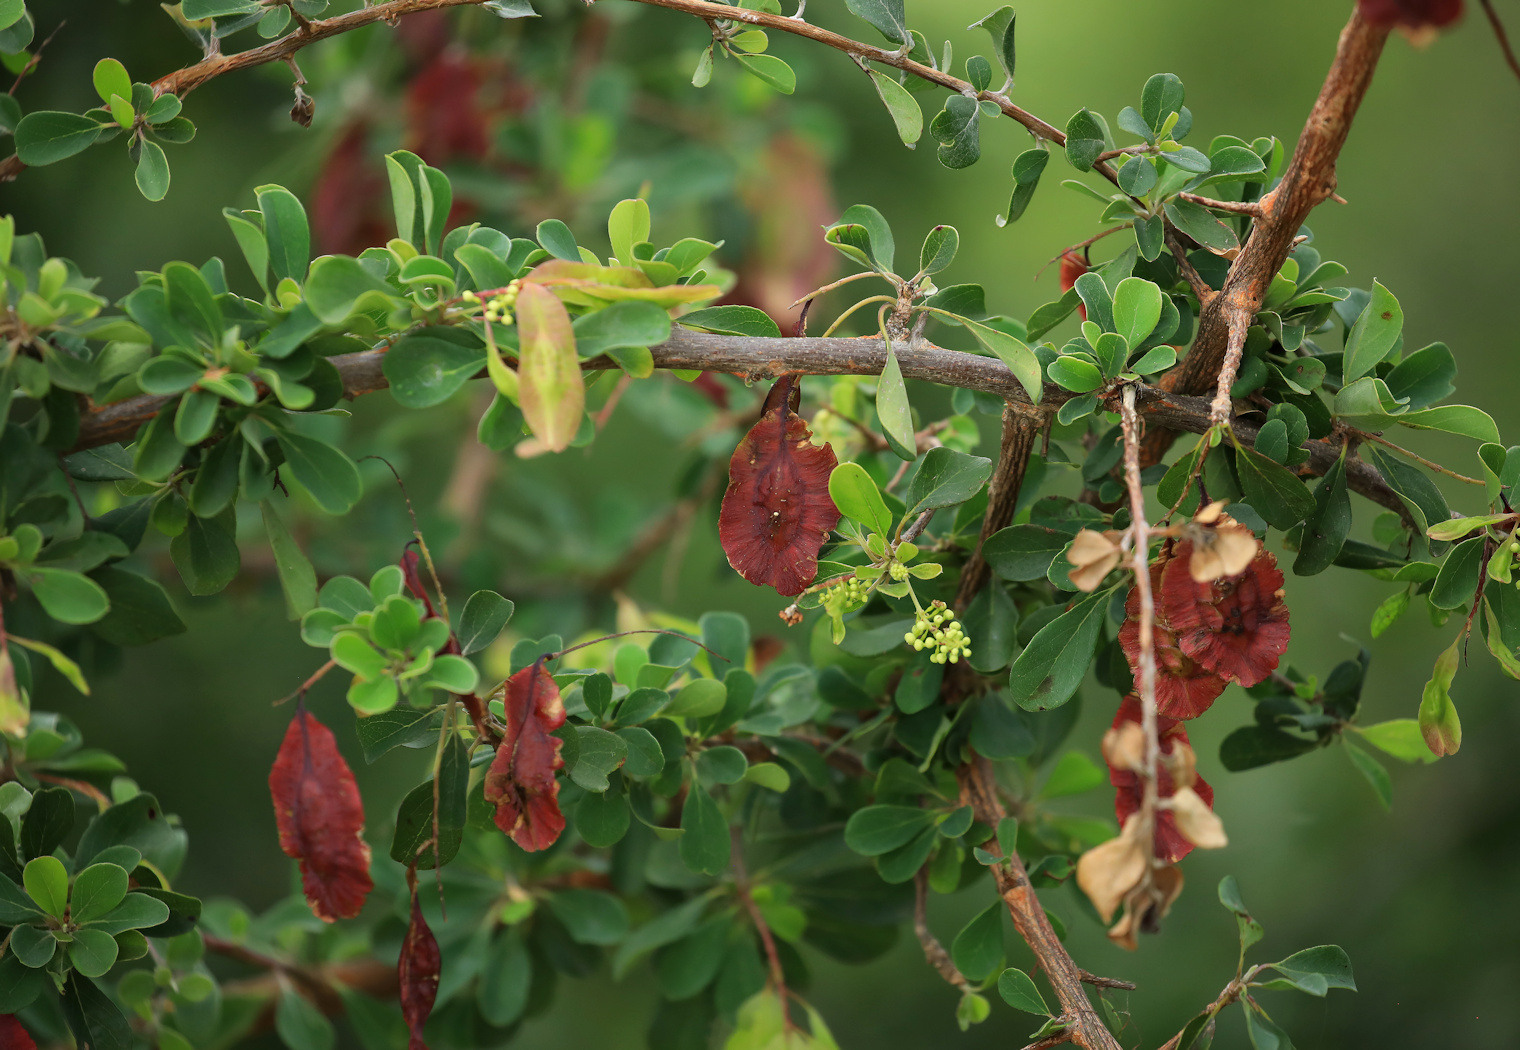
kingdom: Plantae
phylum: Tracheophyta
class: Magnoliopsida
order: Myrtales
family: Combretaceae
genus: Terminalia
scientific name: Terminalia prunioides
